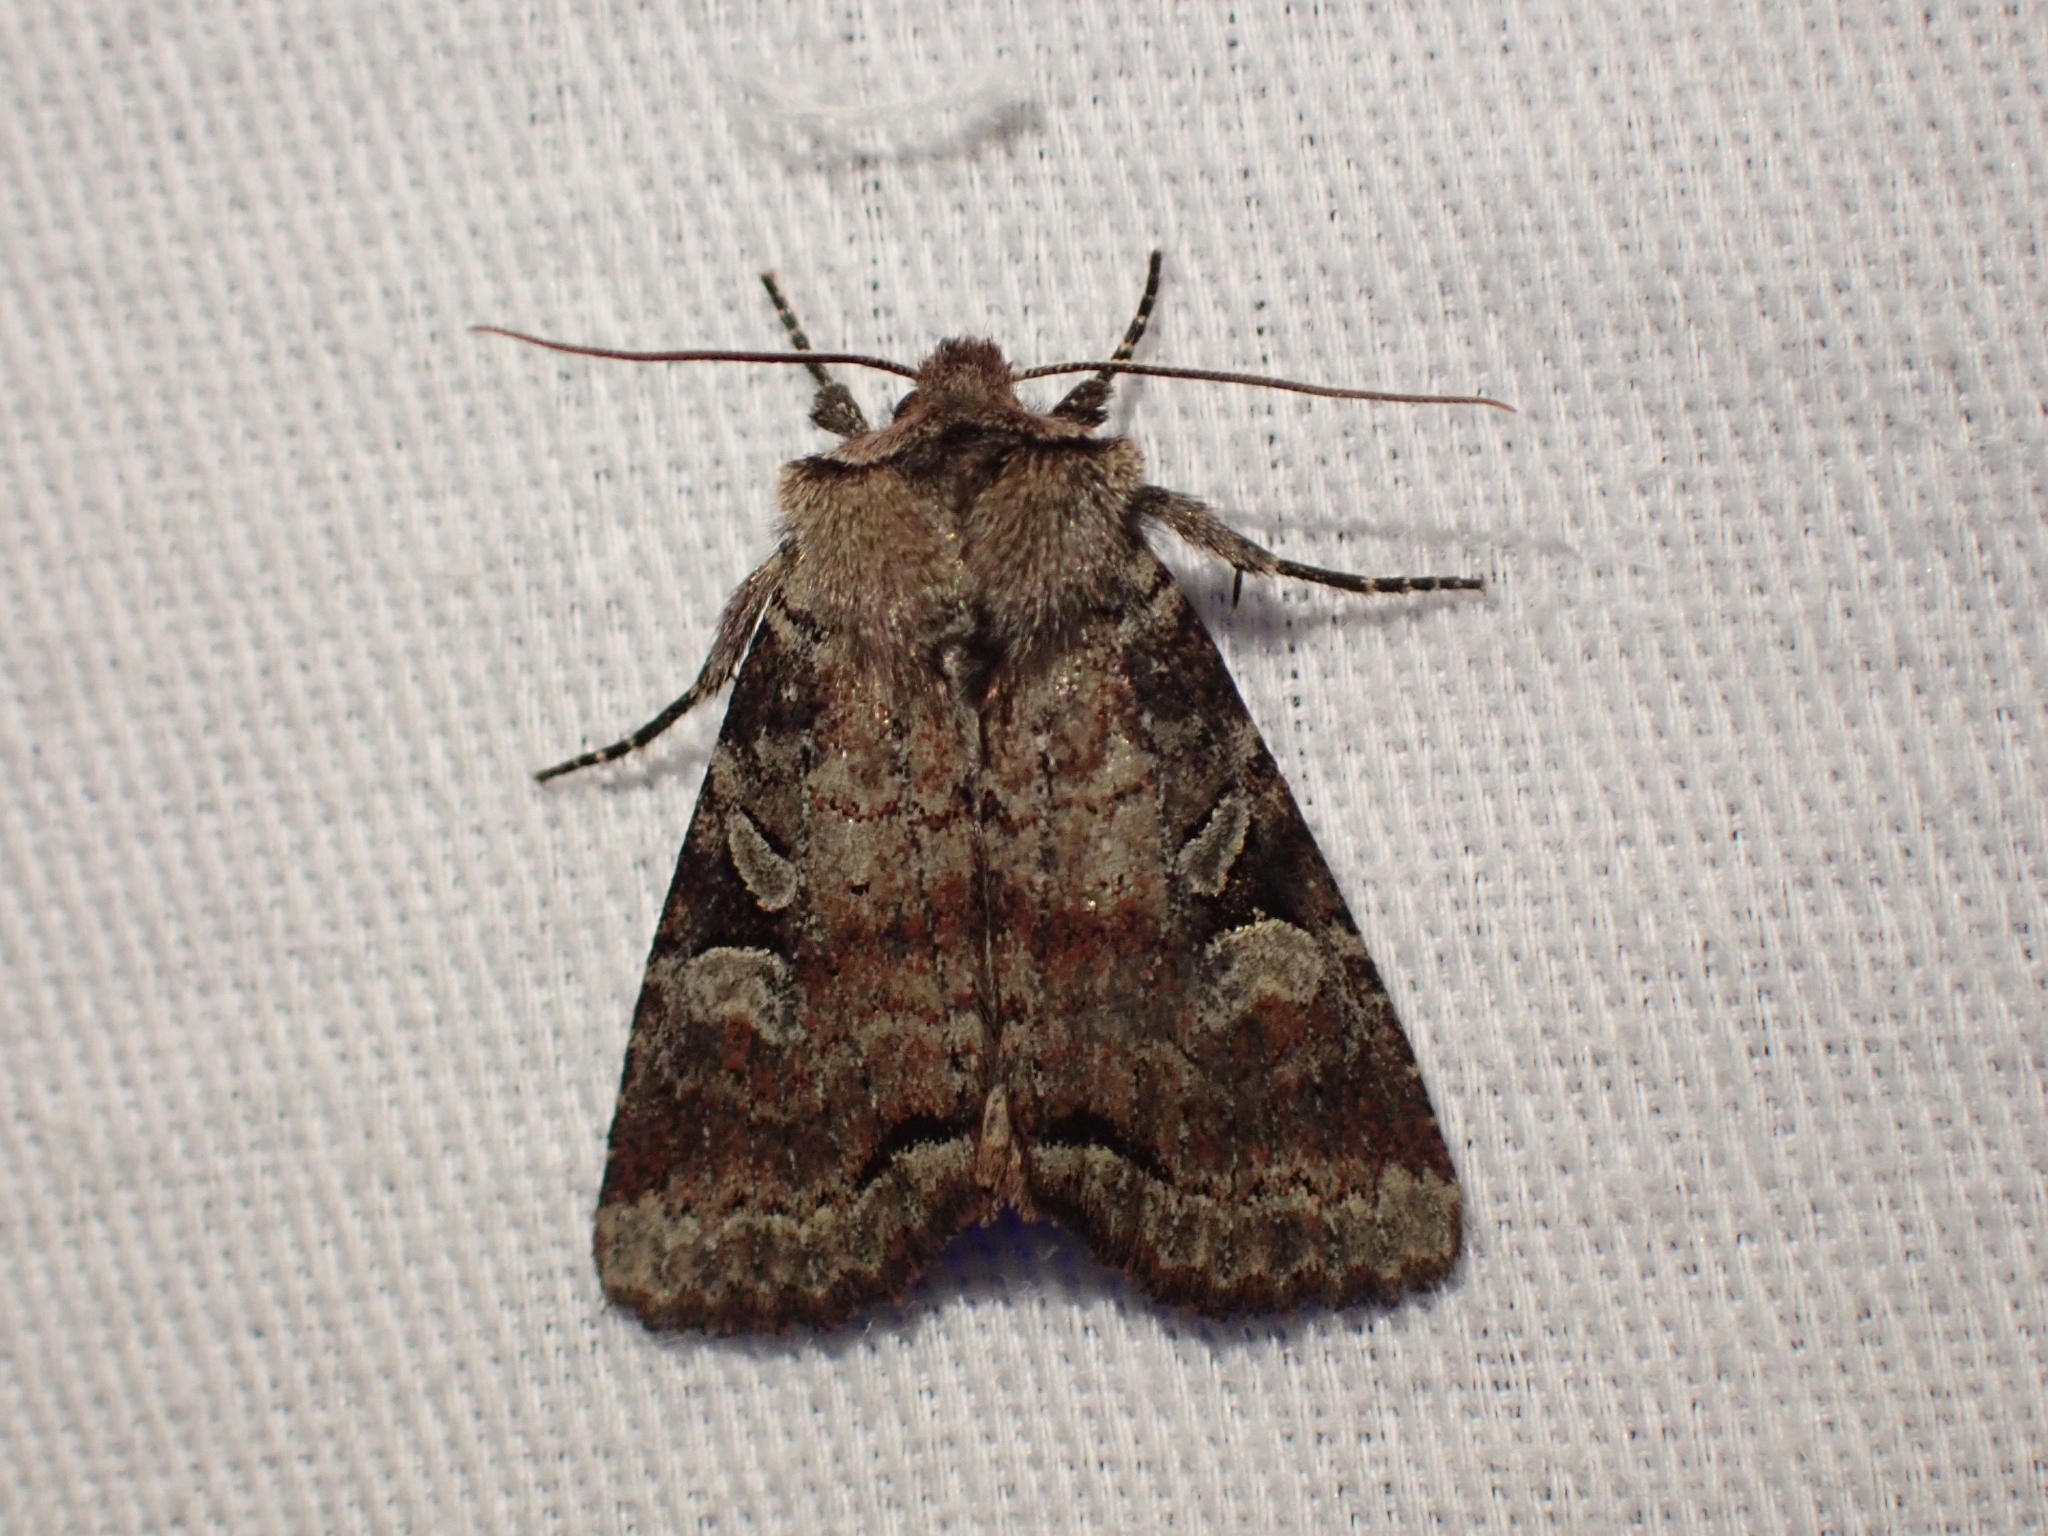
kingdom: Animalia
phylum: Arthropoda
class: Insecta
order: Lepidoptera
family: Noctuidae
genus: Hillia
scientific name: Hillia iris
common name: Iris rover moth
